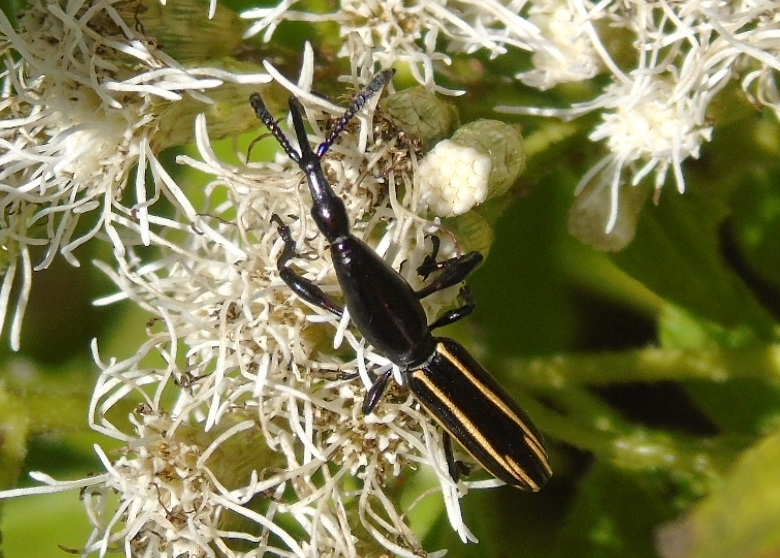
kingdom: Animalia
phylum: Arthropoda
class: Insecta
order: Coleoptera
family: Brentidae
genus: Brentus
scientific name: Brentus anchorago
